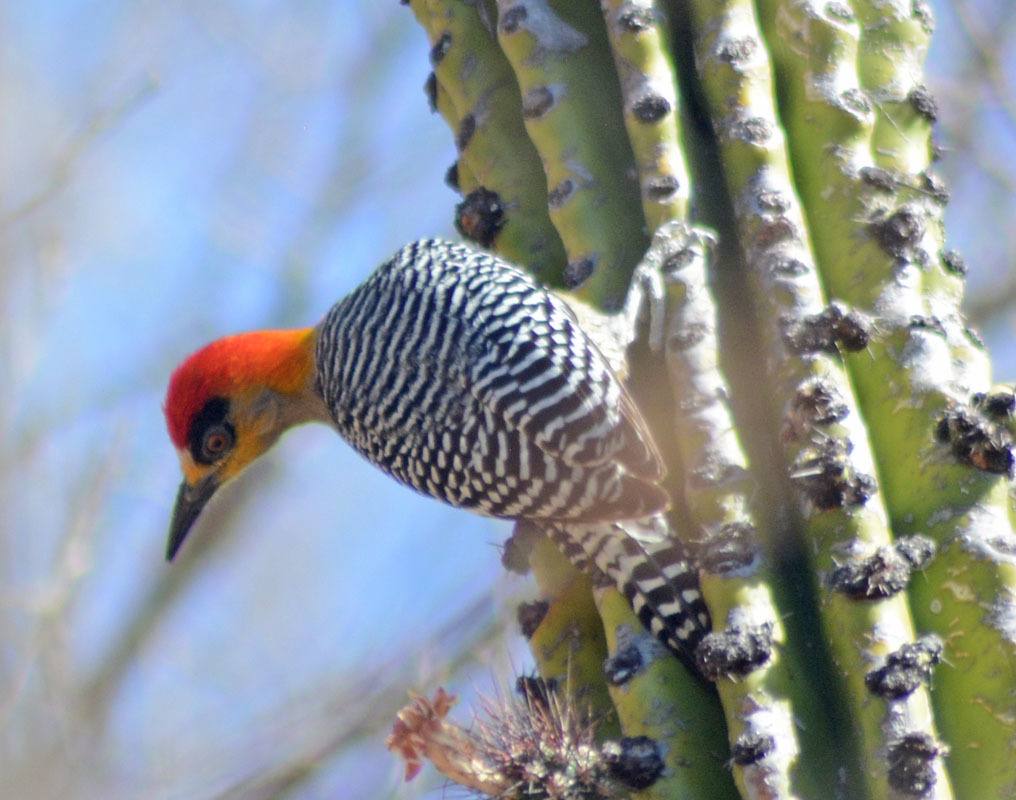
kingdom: Animalia
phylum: Chordata
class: Aves
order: Piciformes
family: Picidae
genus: Melanerpes
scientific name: Melanerpes chrysogenys
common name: Golden-cheeked woodpecker
